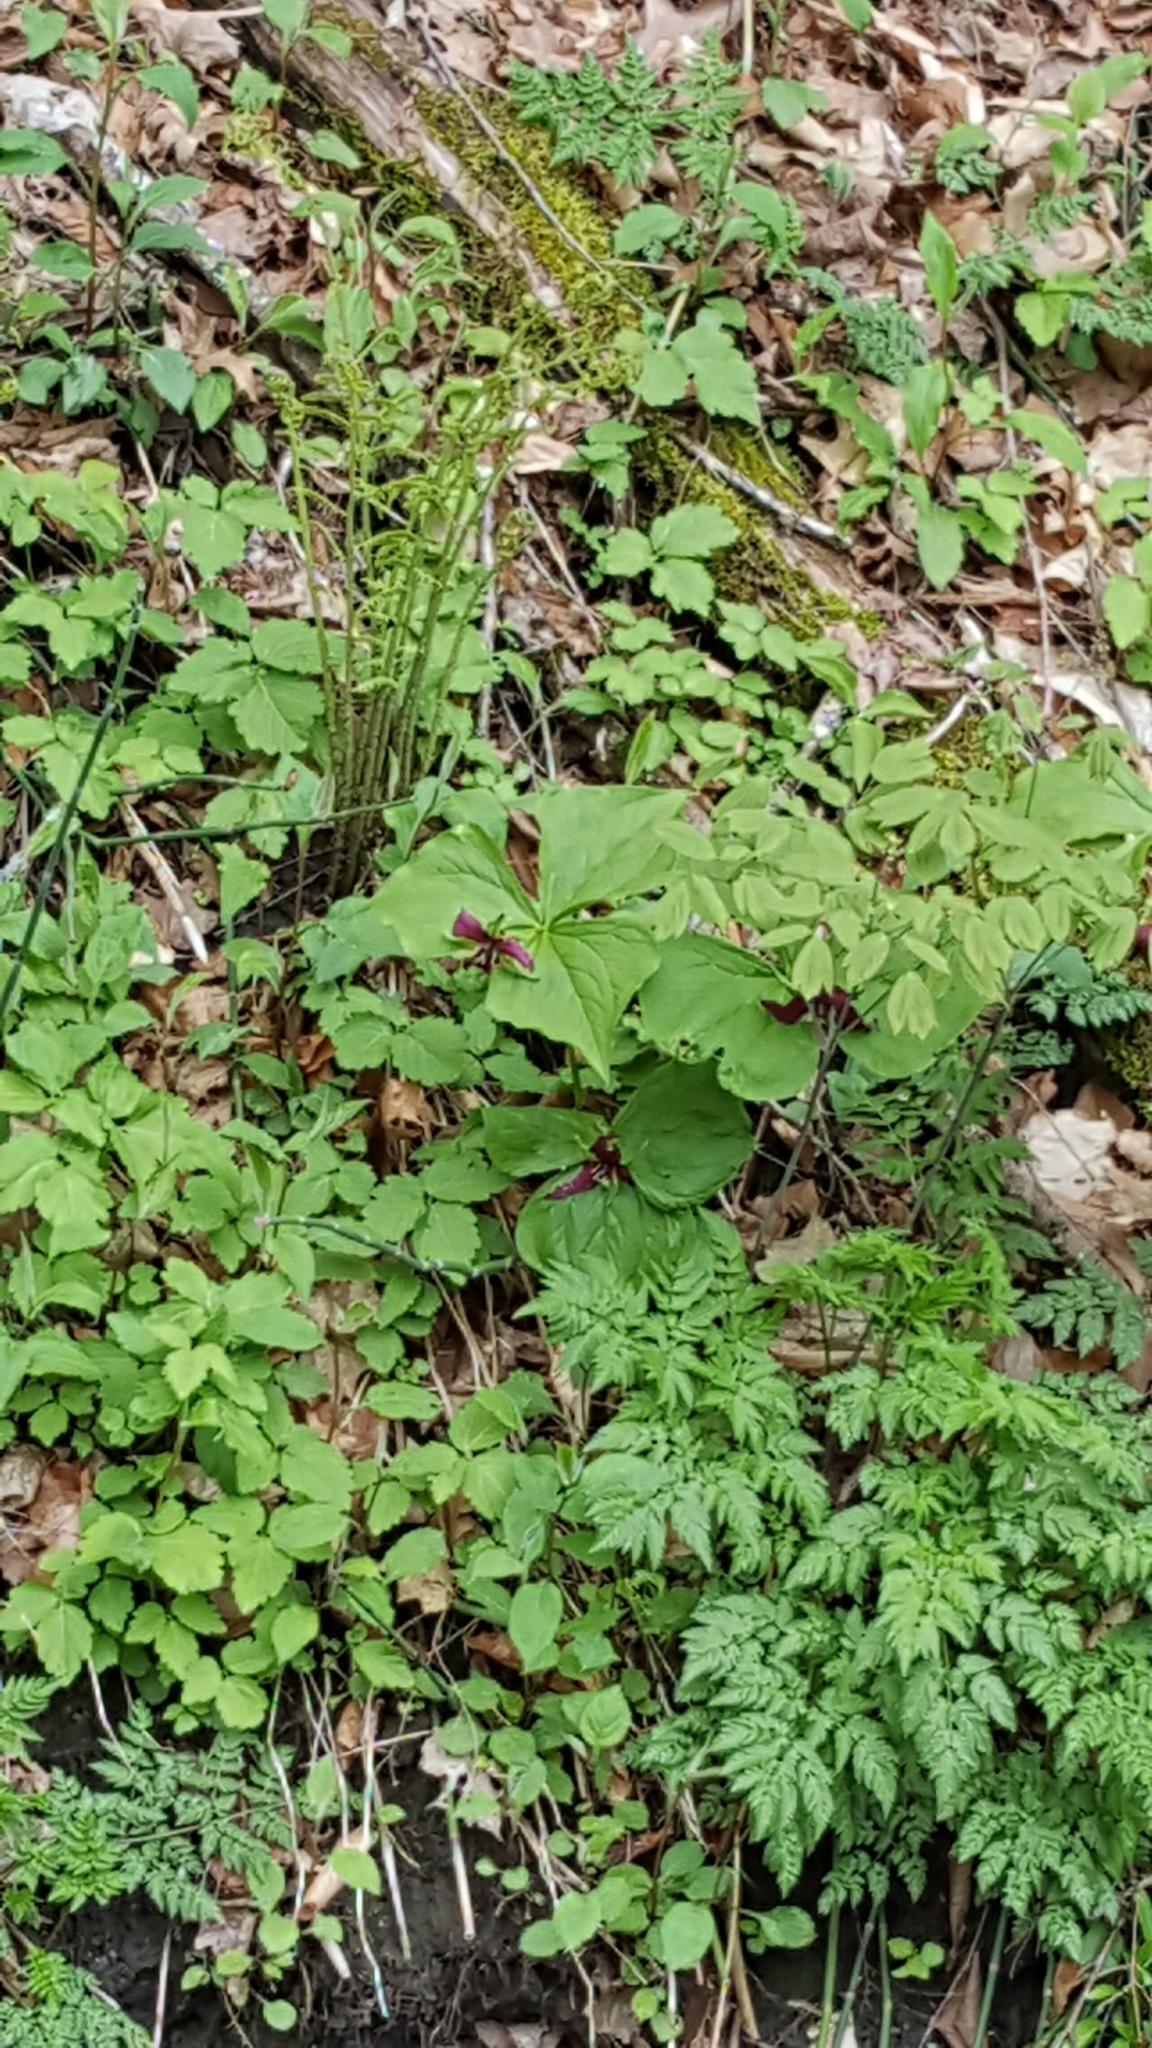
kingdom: Plantae
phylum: Tracheophyta
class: Liliopsida
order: Liliales
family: Melanthiaceae
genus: Trillium
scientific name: Trillium erectum
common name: Purple trillium
